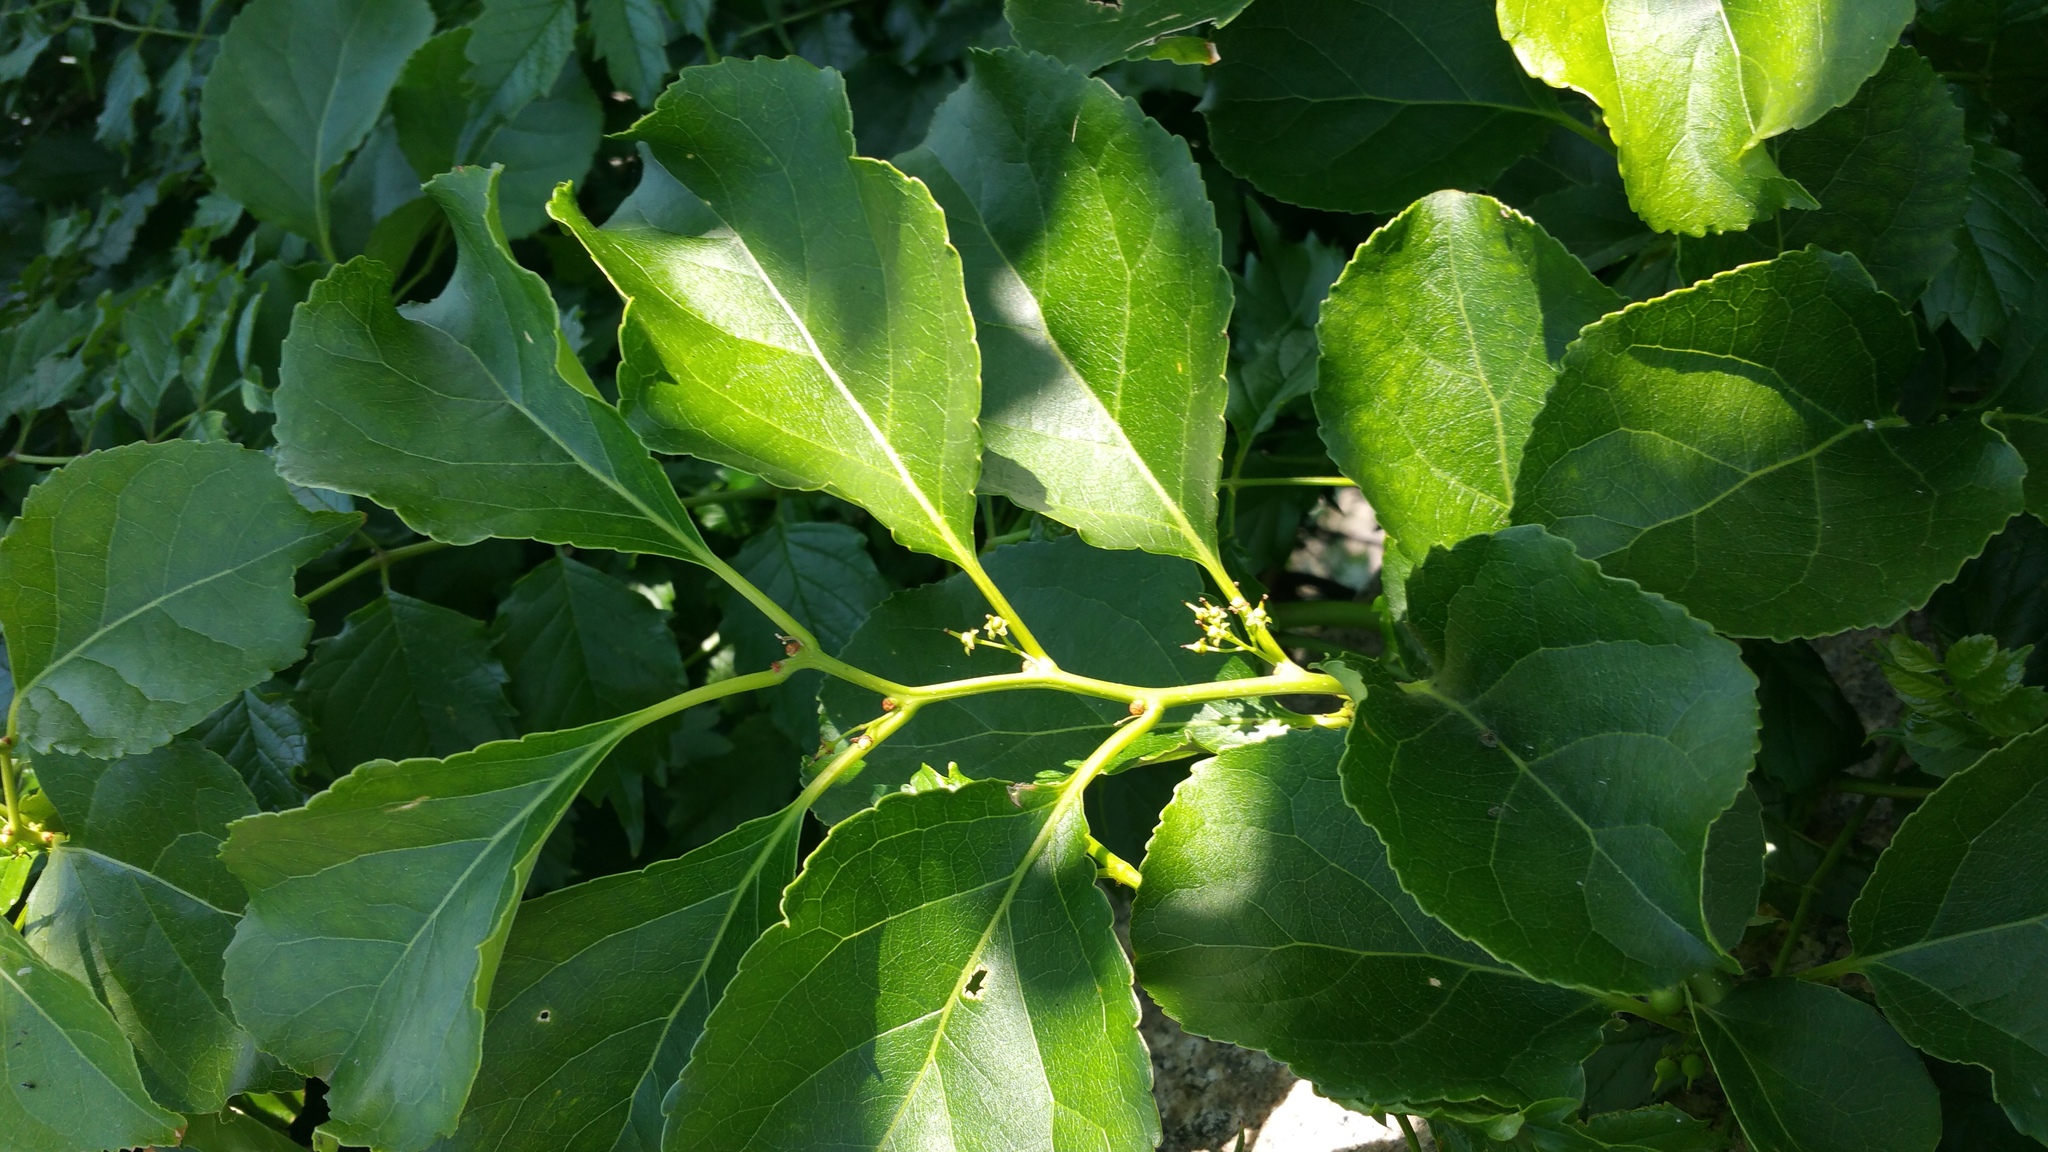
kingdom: Plantae
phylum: Tracheophyta
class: Magnoliopsida
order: Celastrales
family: Celastraceae
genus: Celastrus
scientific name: Celastrus orbiculatus
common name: Oriental bittersweet
